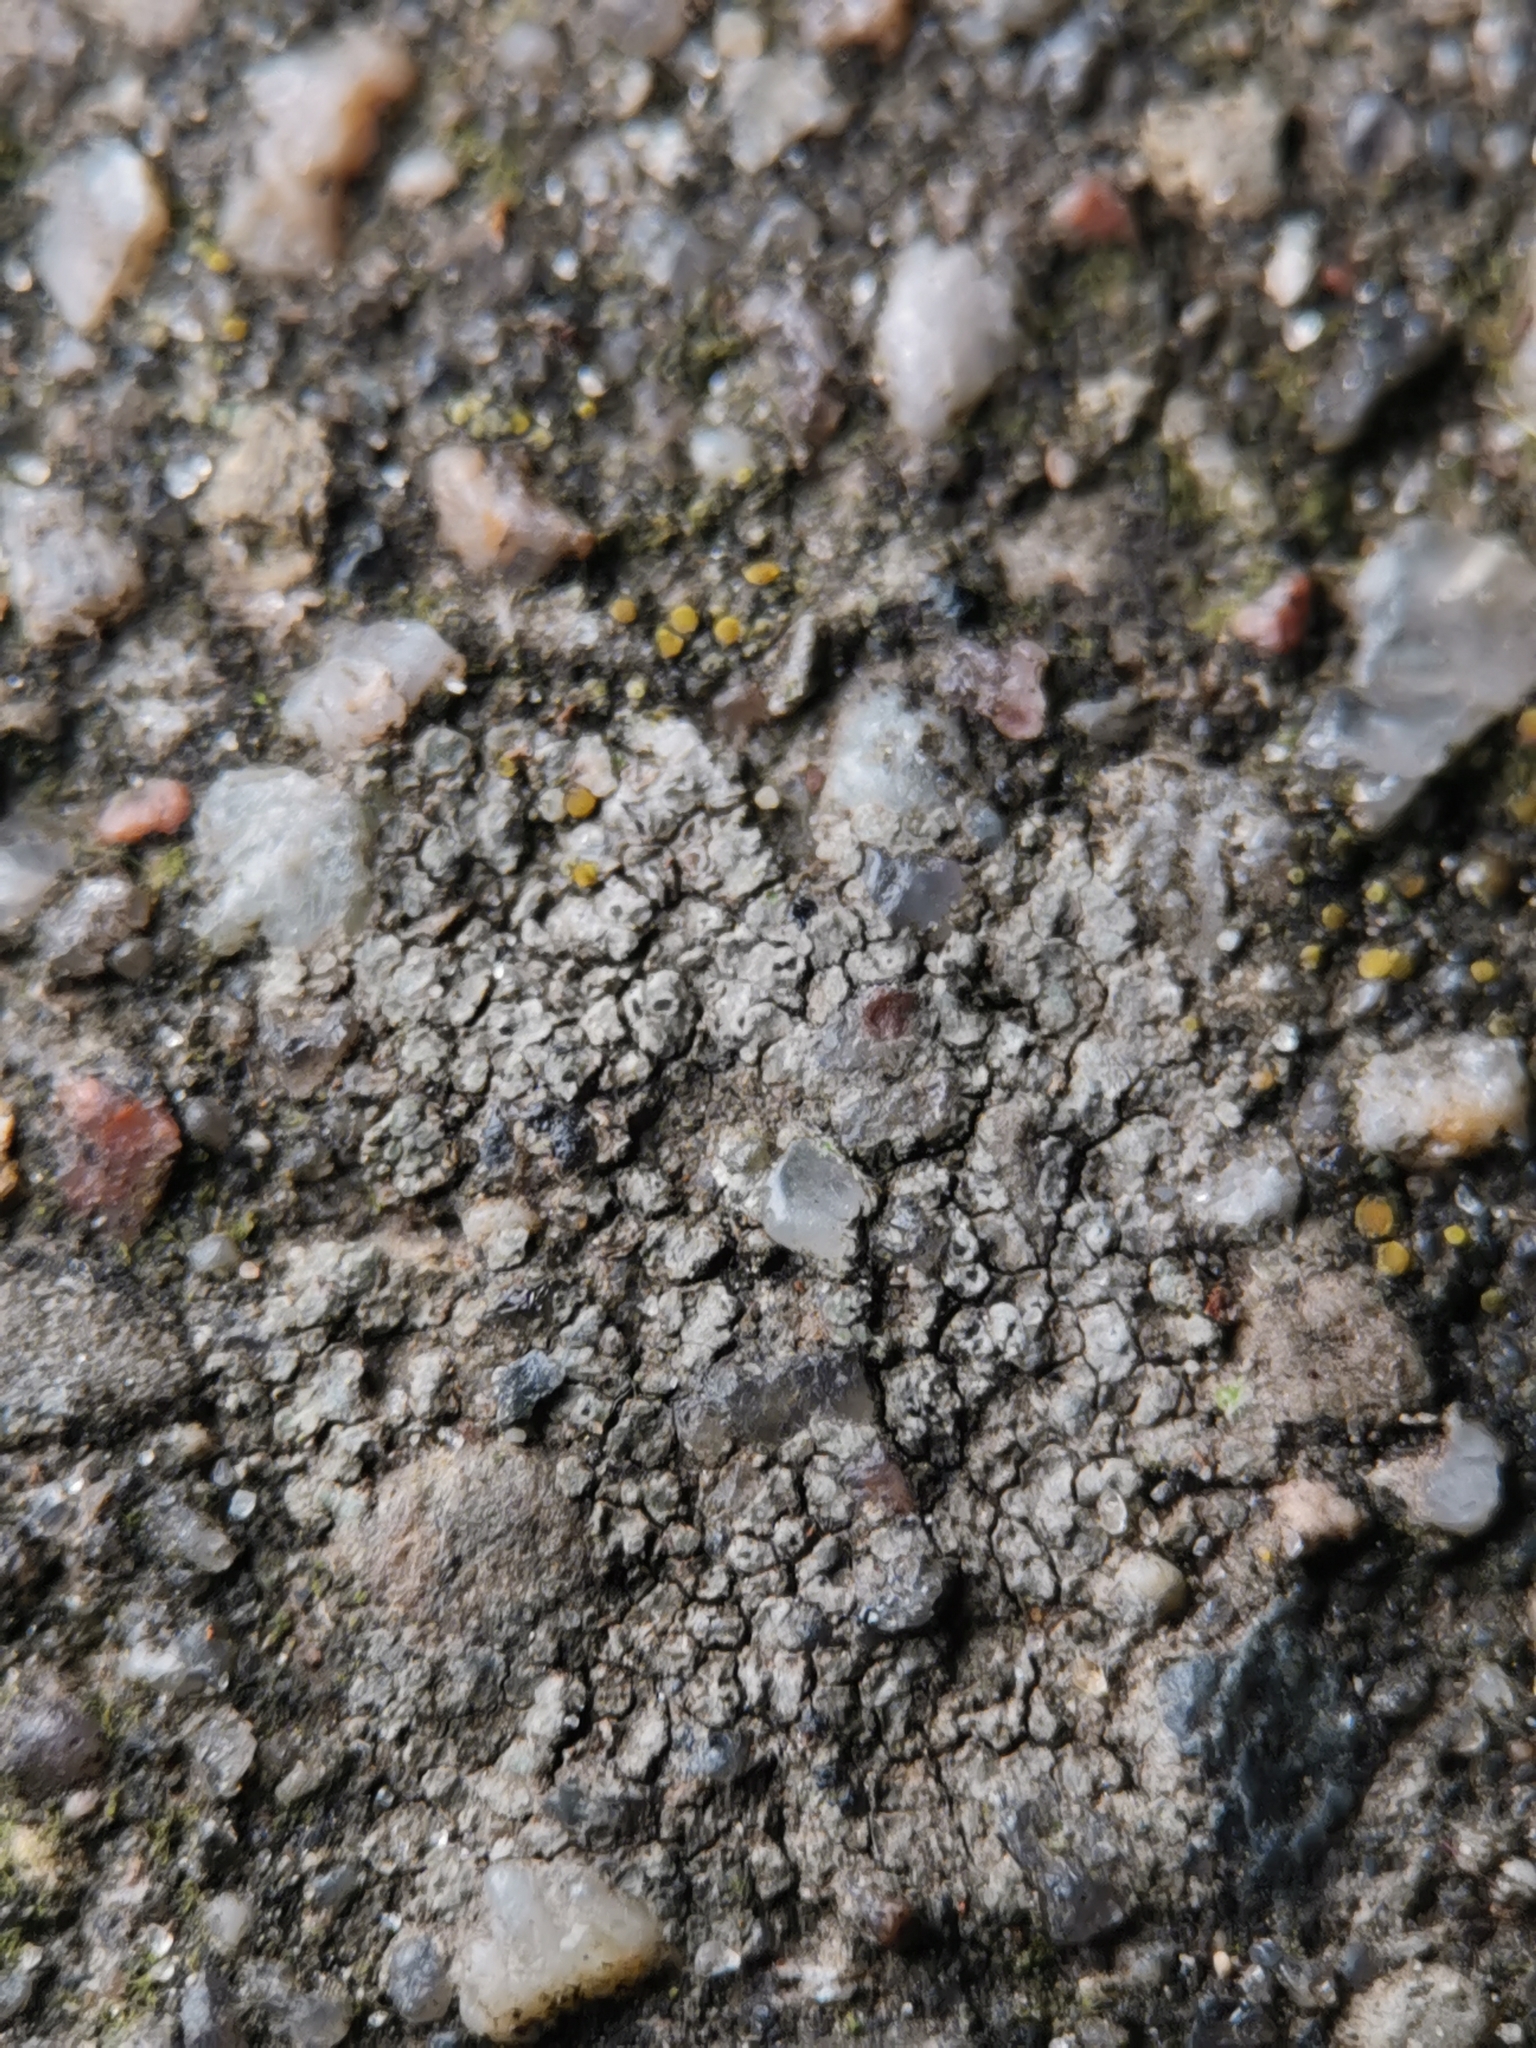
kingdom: Fungi
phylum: Ascomycota
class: Lecanoromycetes
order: Pertusariales
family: Megasporaceae
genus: Circinaria
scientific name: Circinaria contorta
